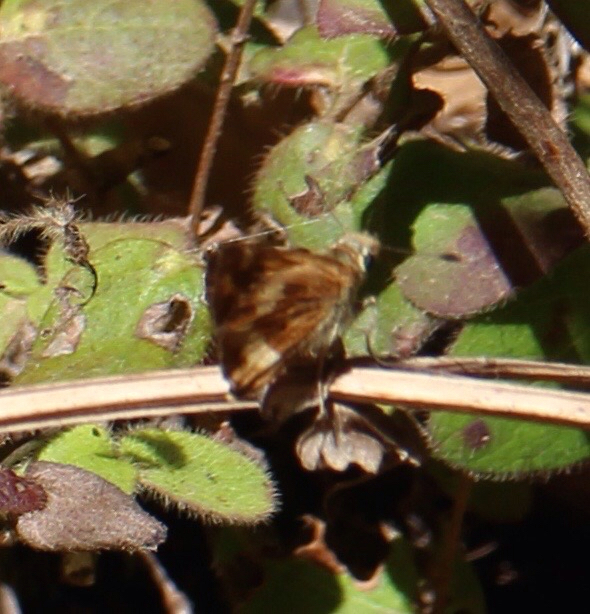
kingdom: Animalia
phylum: Arthropoda
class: Insecta
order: Lepidoptera
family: Hesperiidae
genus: Ochlodes
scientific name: Ochlodes sylvanoides
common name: Woodland skipper
